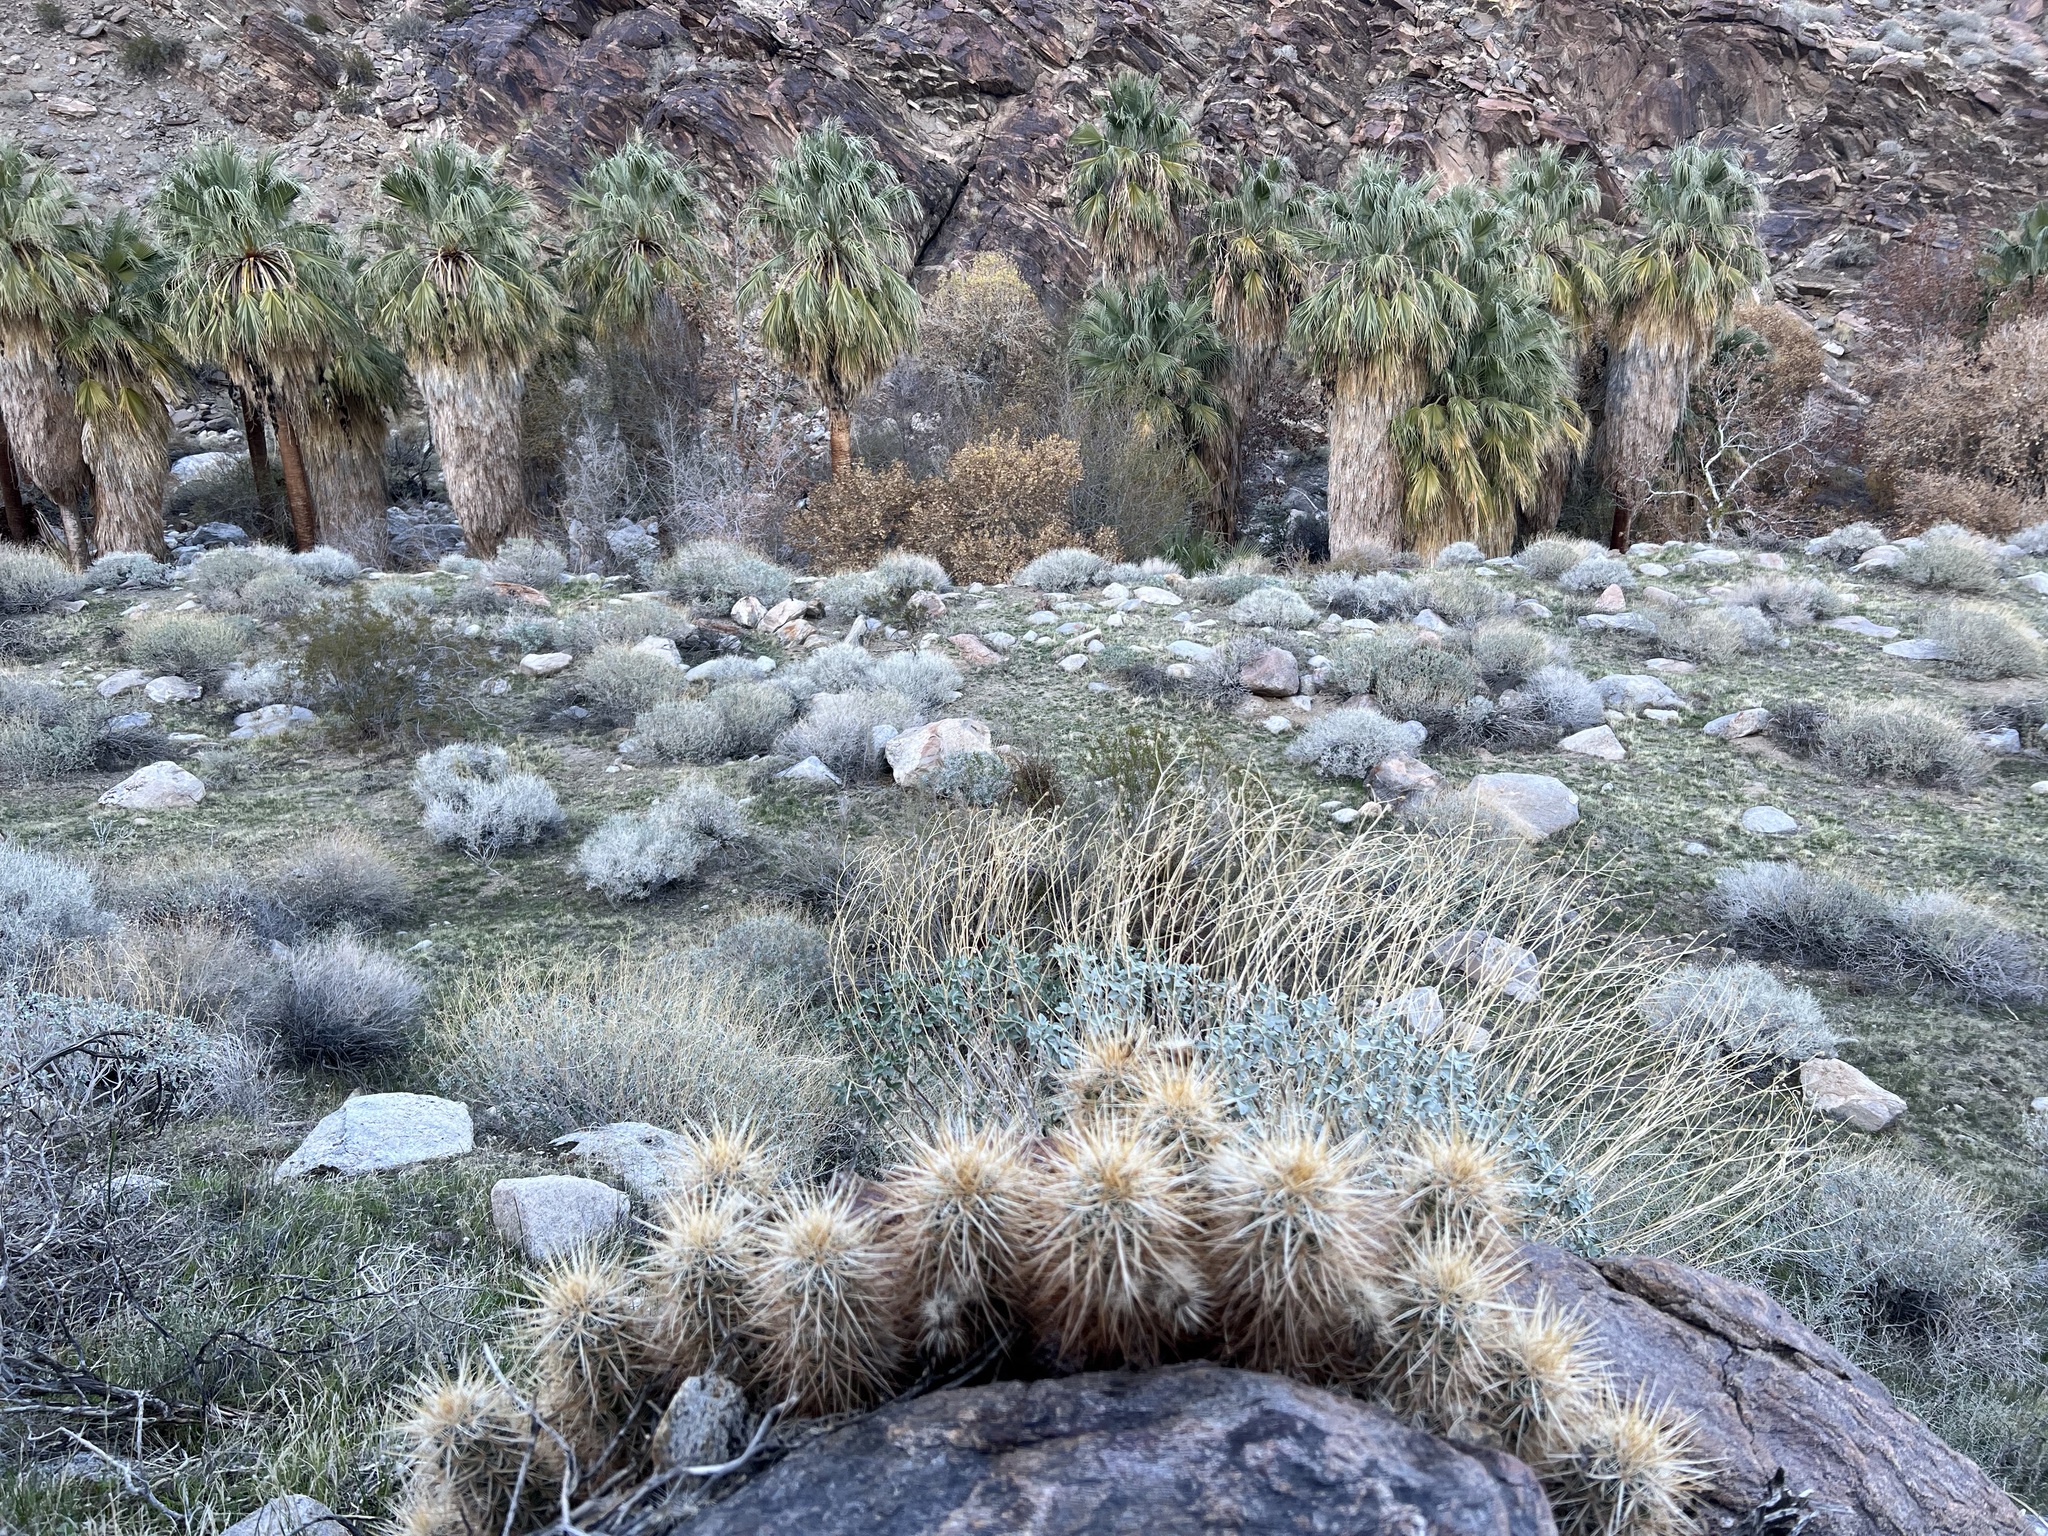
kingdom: Plantae
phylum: Tracheophyta
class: Magnoliopsida
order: Caryophyllales
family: Cactaceae
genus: Echinocereus
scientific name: Echinocereus engelmannii
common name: Engelmann's hedgehog cactus
